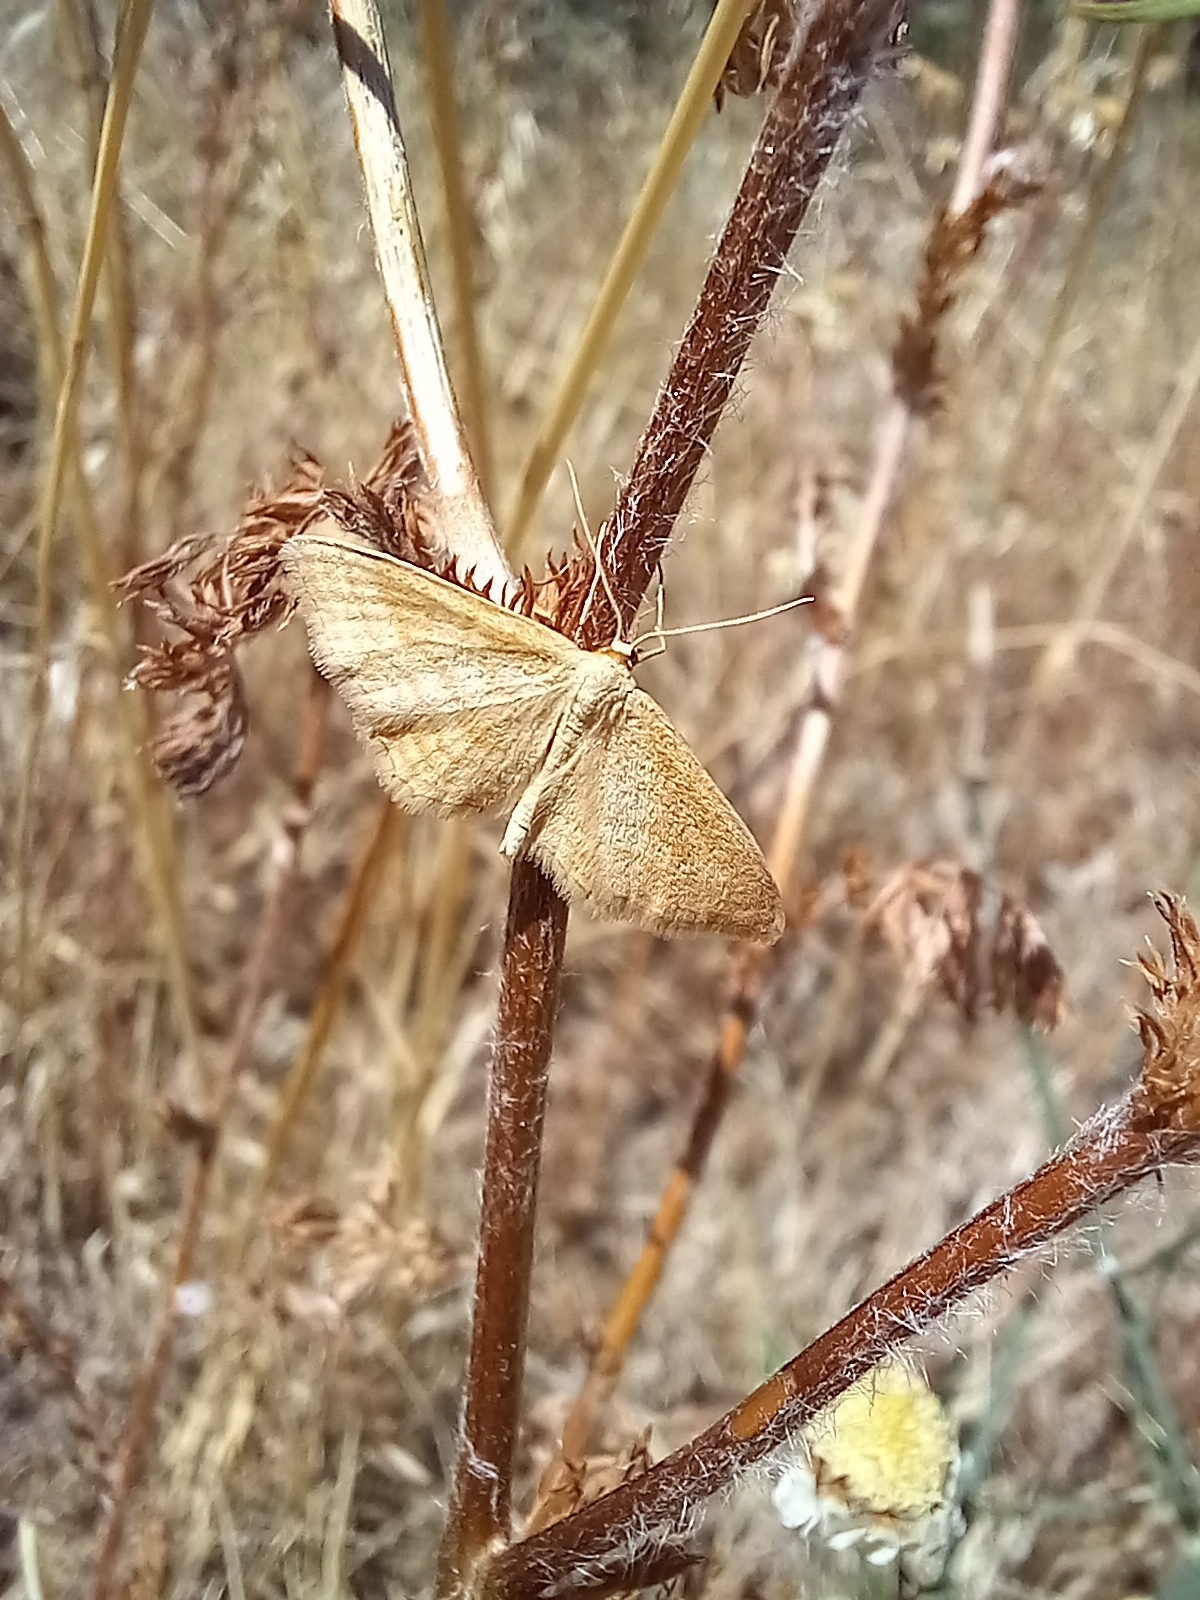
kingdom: Animalia
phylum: Arthropoda
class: Insecta
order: Lepidoptera
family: Geometridae
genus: Idaea
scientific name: Idaea ochrata
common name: Bright wave
